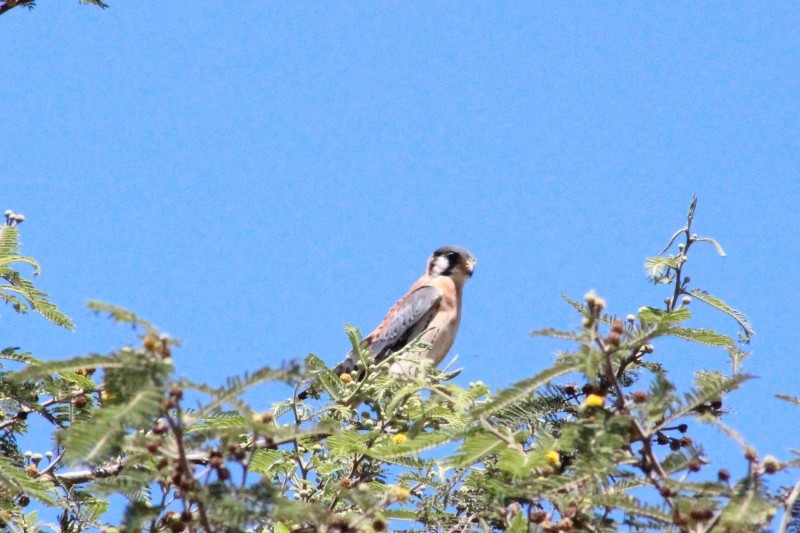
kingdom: Animalia
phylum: Chordata
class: Aves
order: Falconiformes
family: Falconidae
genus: Falco
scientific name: Falco sparverius
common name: American kestrel
